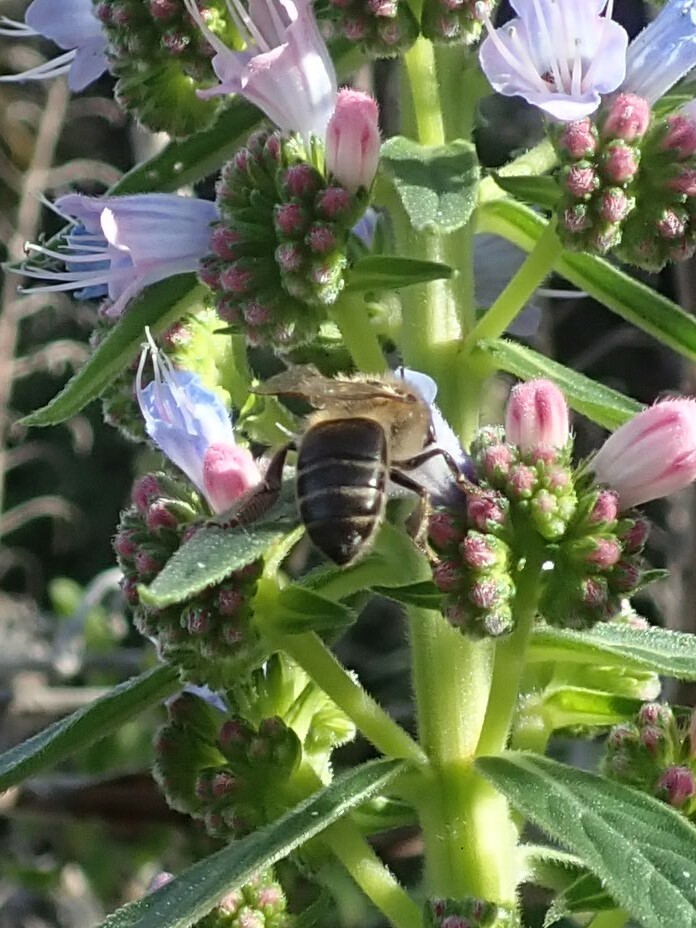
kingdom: Animalia
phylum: Arthropoda
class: Insecta
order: Hymenoptera
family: Apidae
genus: Apis
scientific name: Apis mellifera
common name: Honey bee
